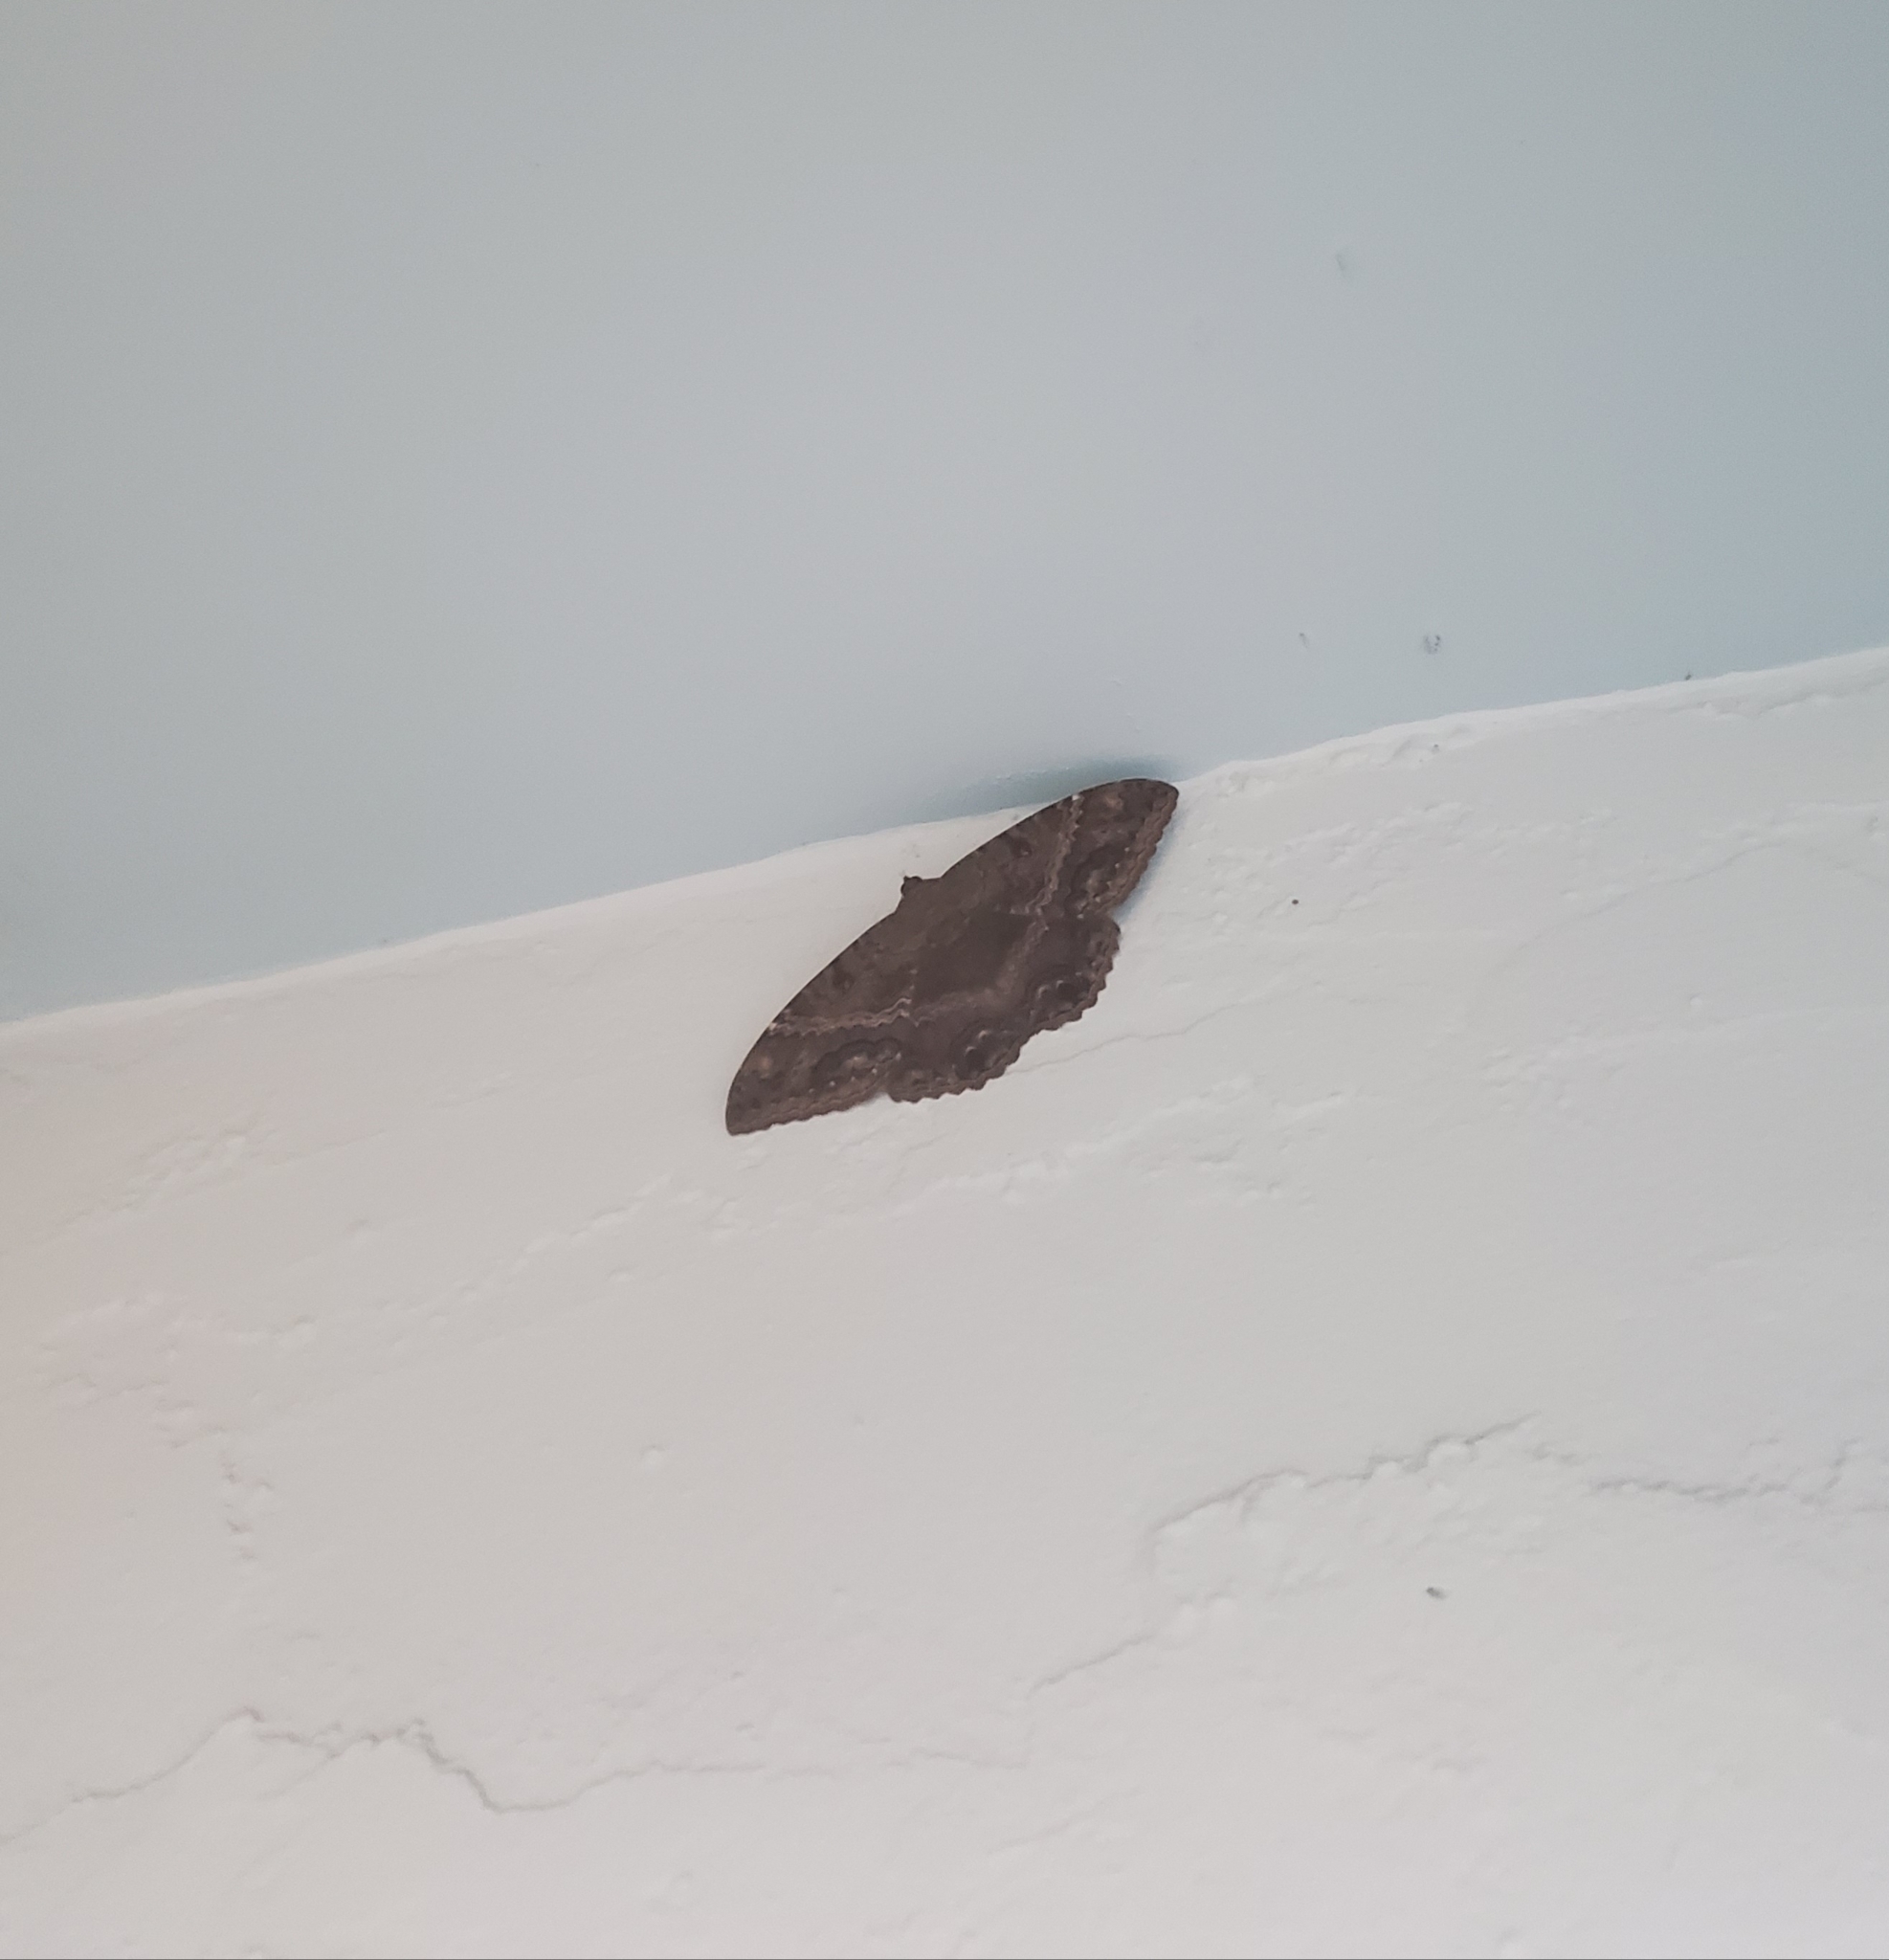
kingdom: Animalia
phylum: Arthropoda
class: Insecta
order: Lepidoptera
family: Erebidae
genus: Ascalapha
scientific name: Ascalapha odorata
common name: Black witch
